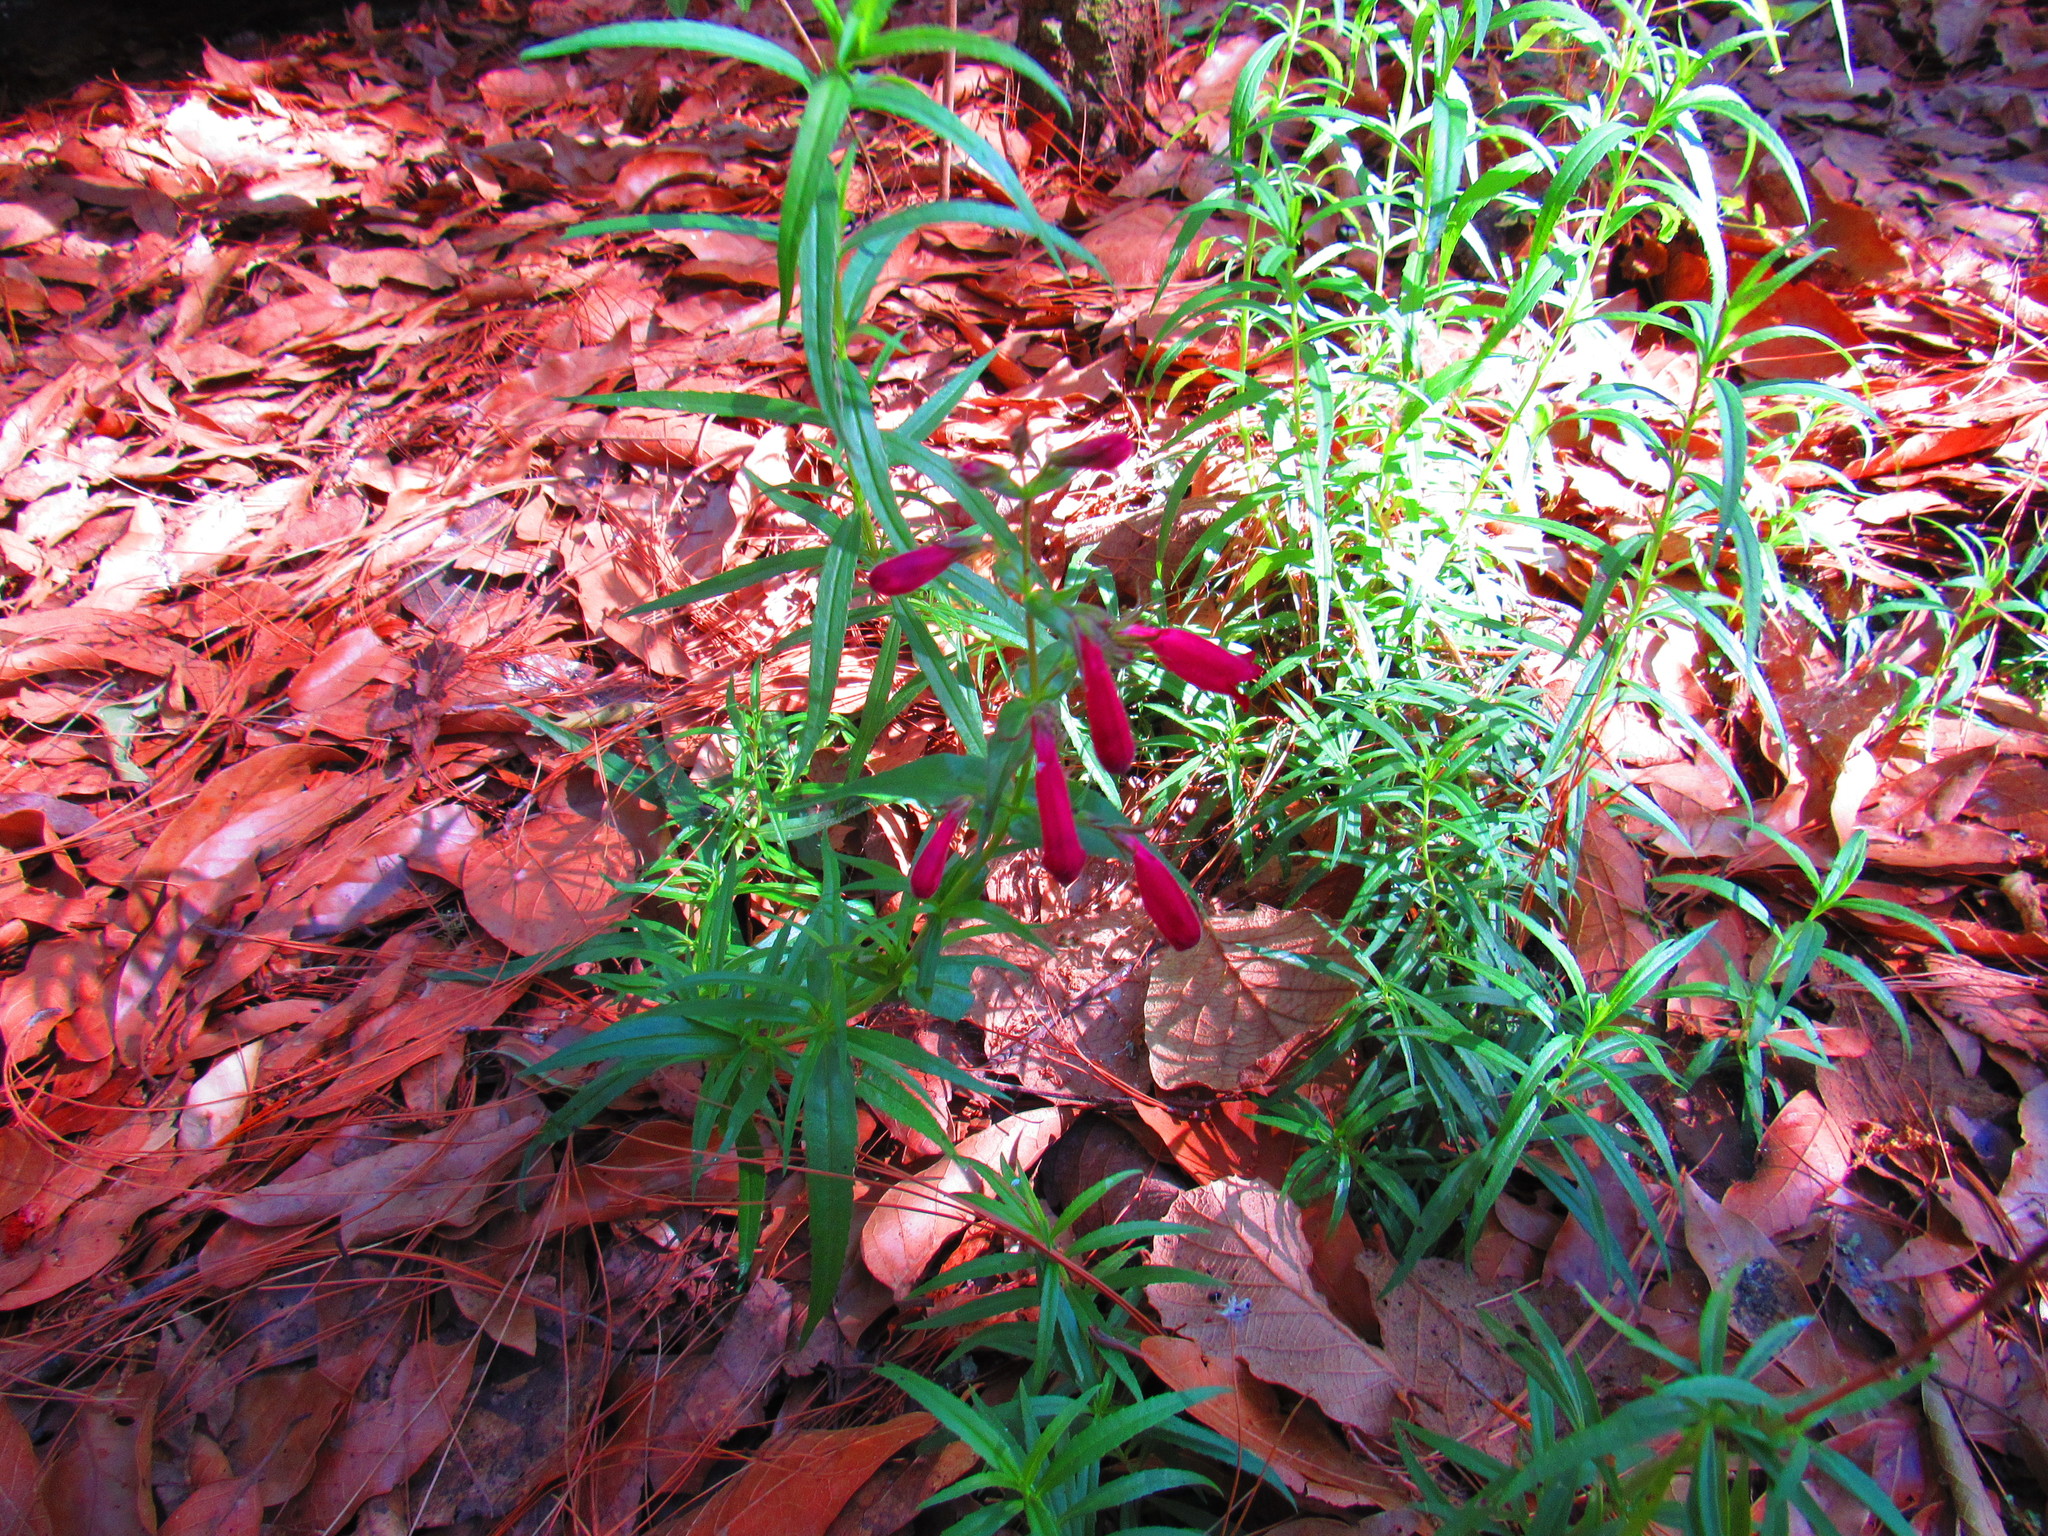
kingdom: Plantae
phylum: Tracheophyta
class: Magnoliopsida
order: Lamiales
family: Plantaginaceae
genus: Penstemon
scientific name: Penstemon roseus
